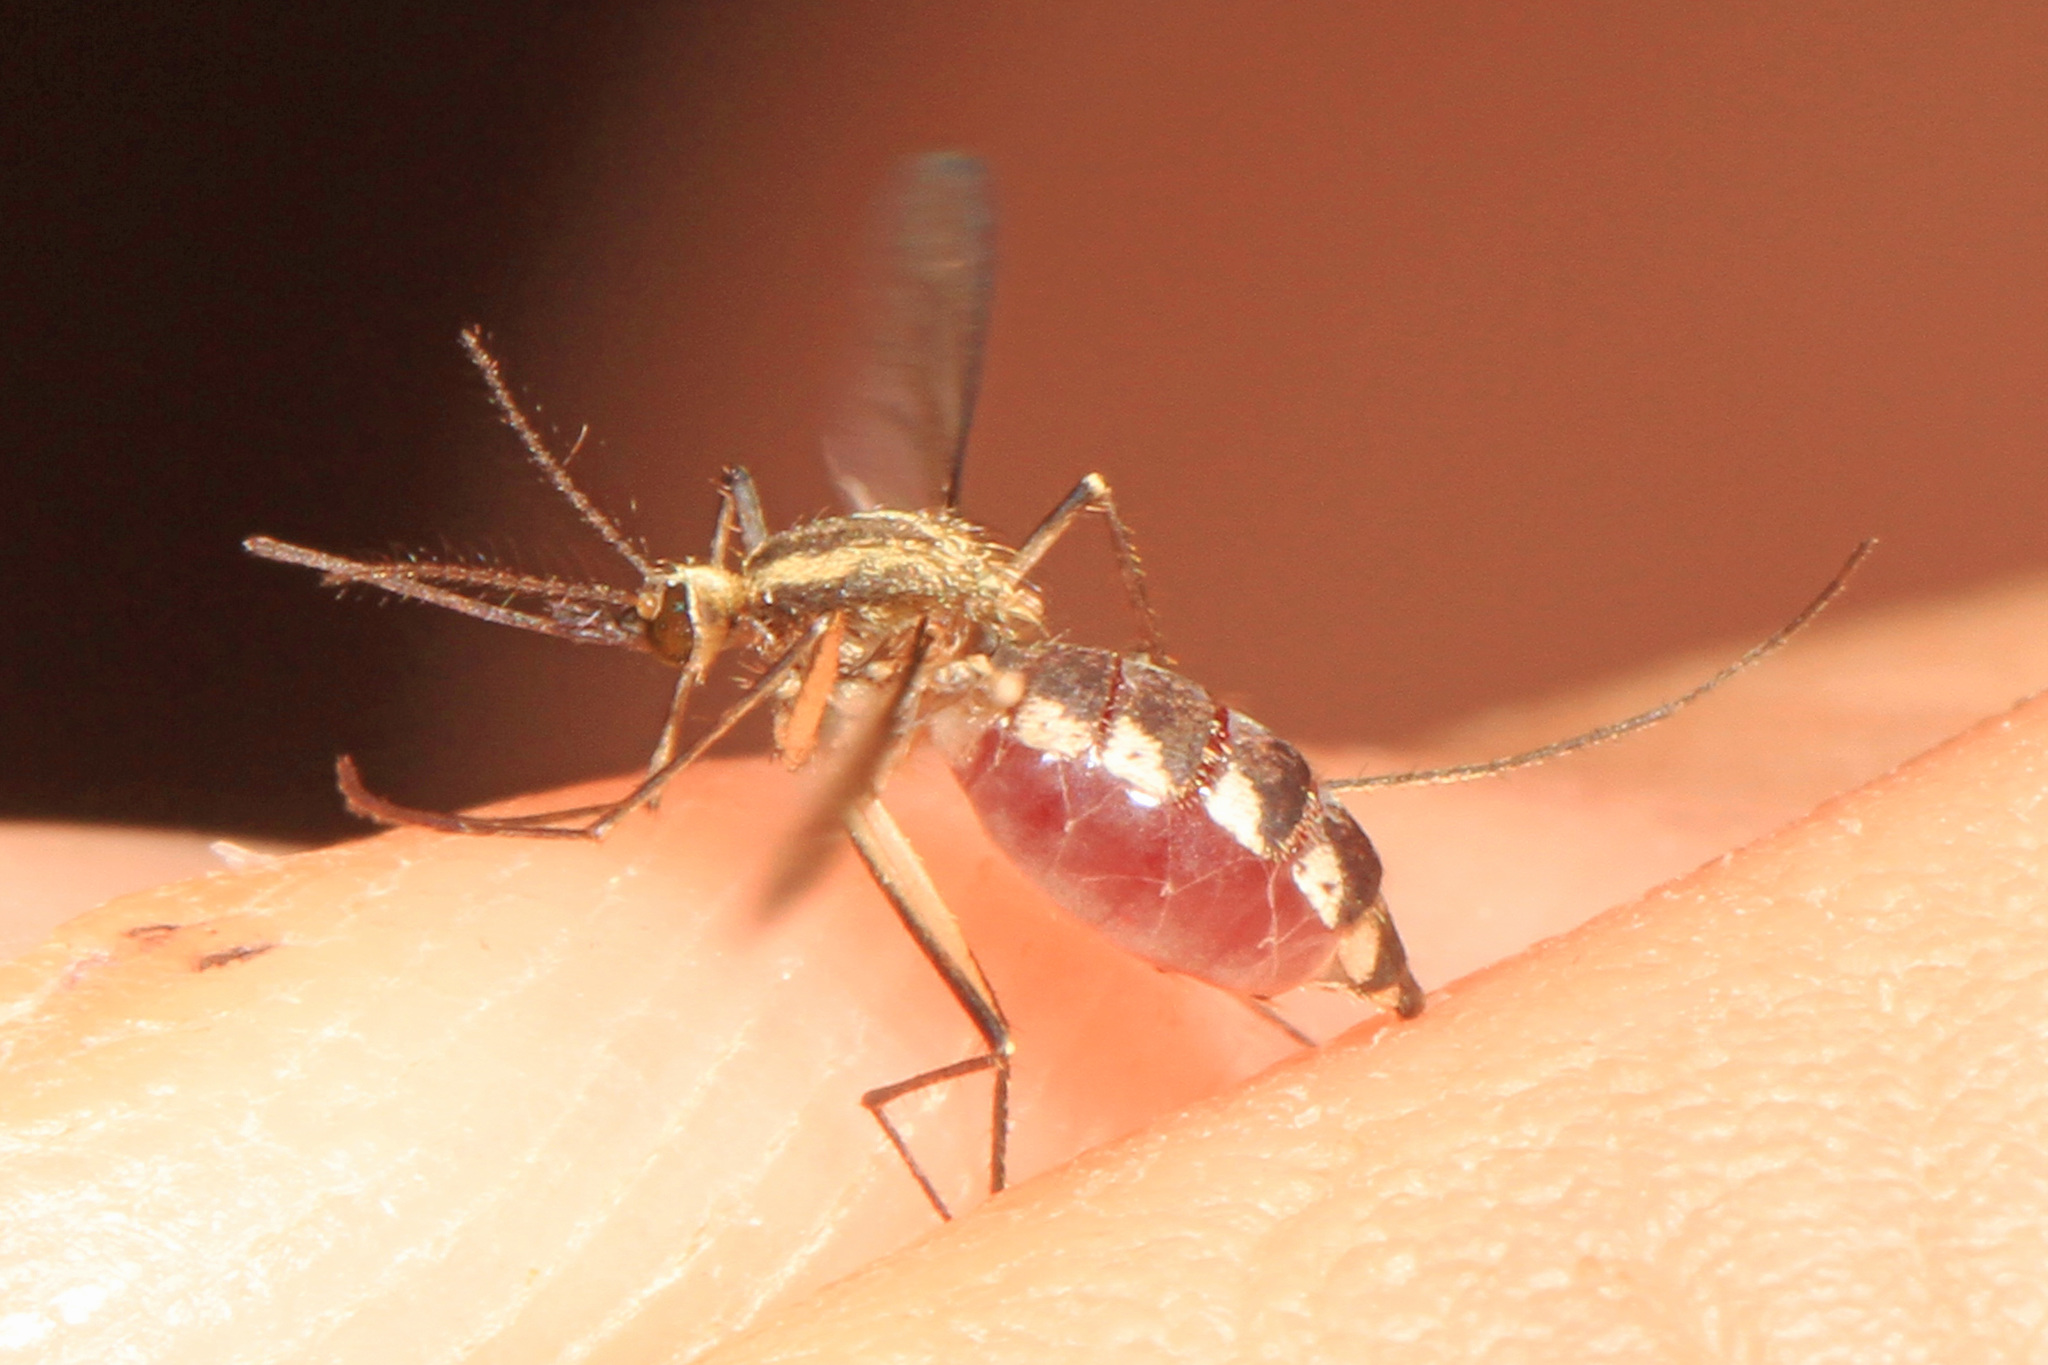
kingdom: Animalia
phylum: Arthropoda
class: Insecta
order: Diptera
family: Culicidae
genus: Aedes
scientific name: Aedes trivittatus
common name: Plains floodwater mosquito
